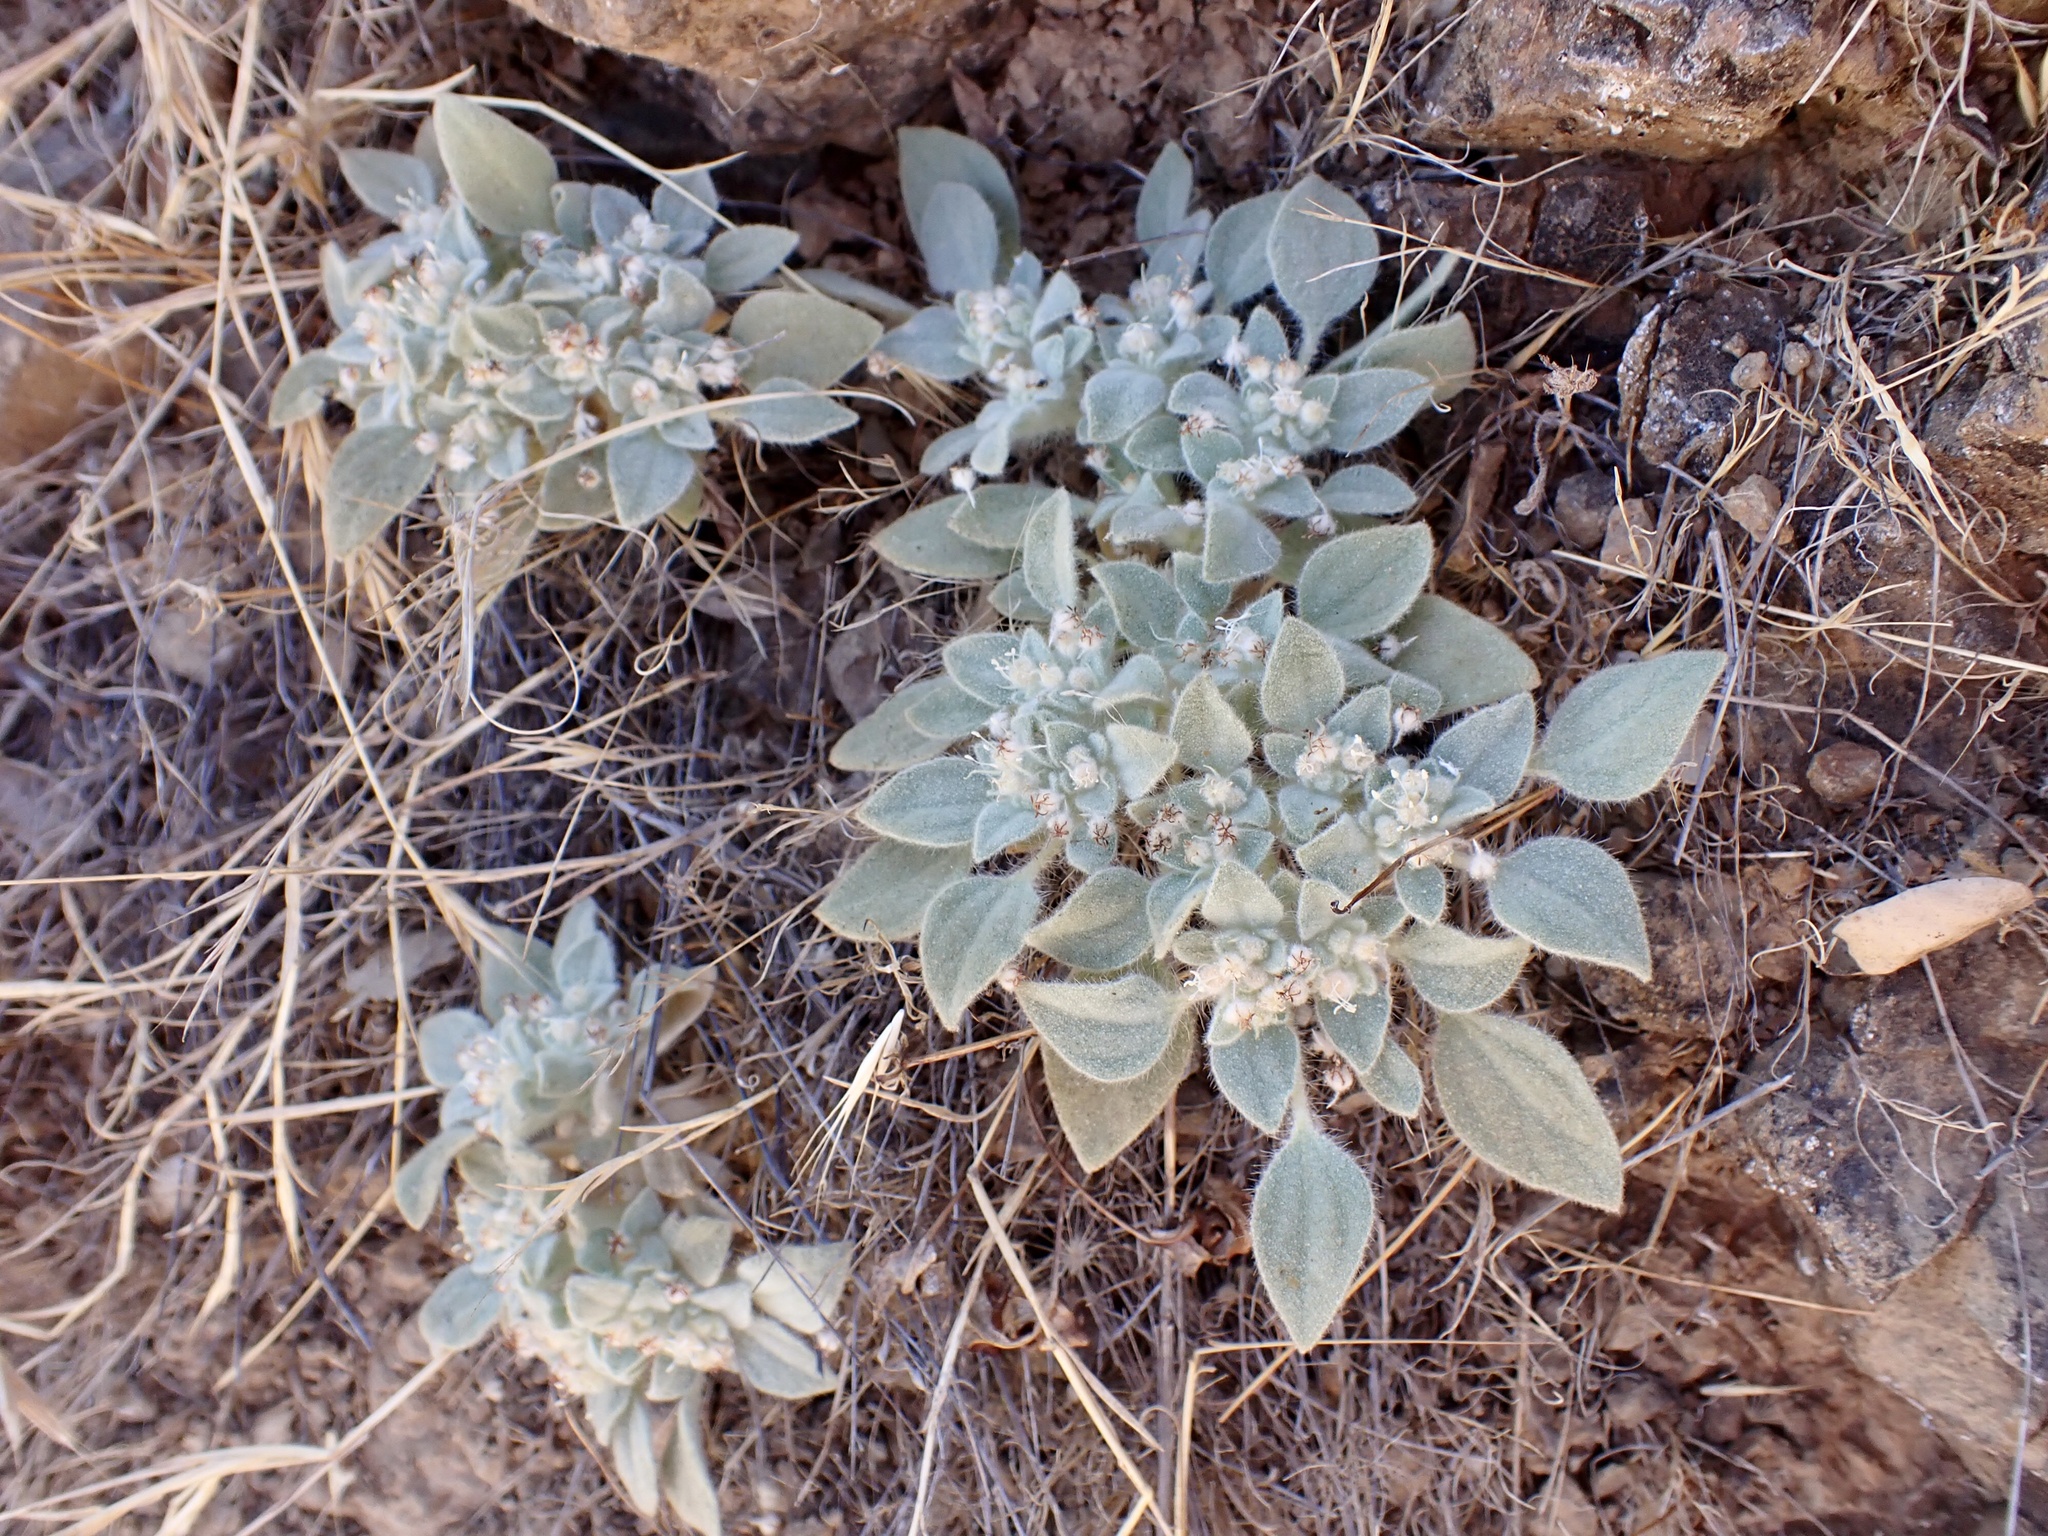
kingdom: Plantae
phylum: Tracheophyta
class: Magnoliopsida
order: Malpighiales
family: Euphorbiaceae
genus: Croton
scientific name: Croton setiger
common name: Dove weed
